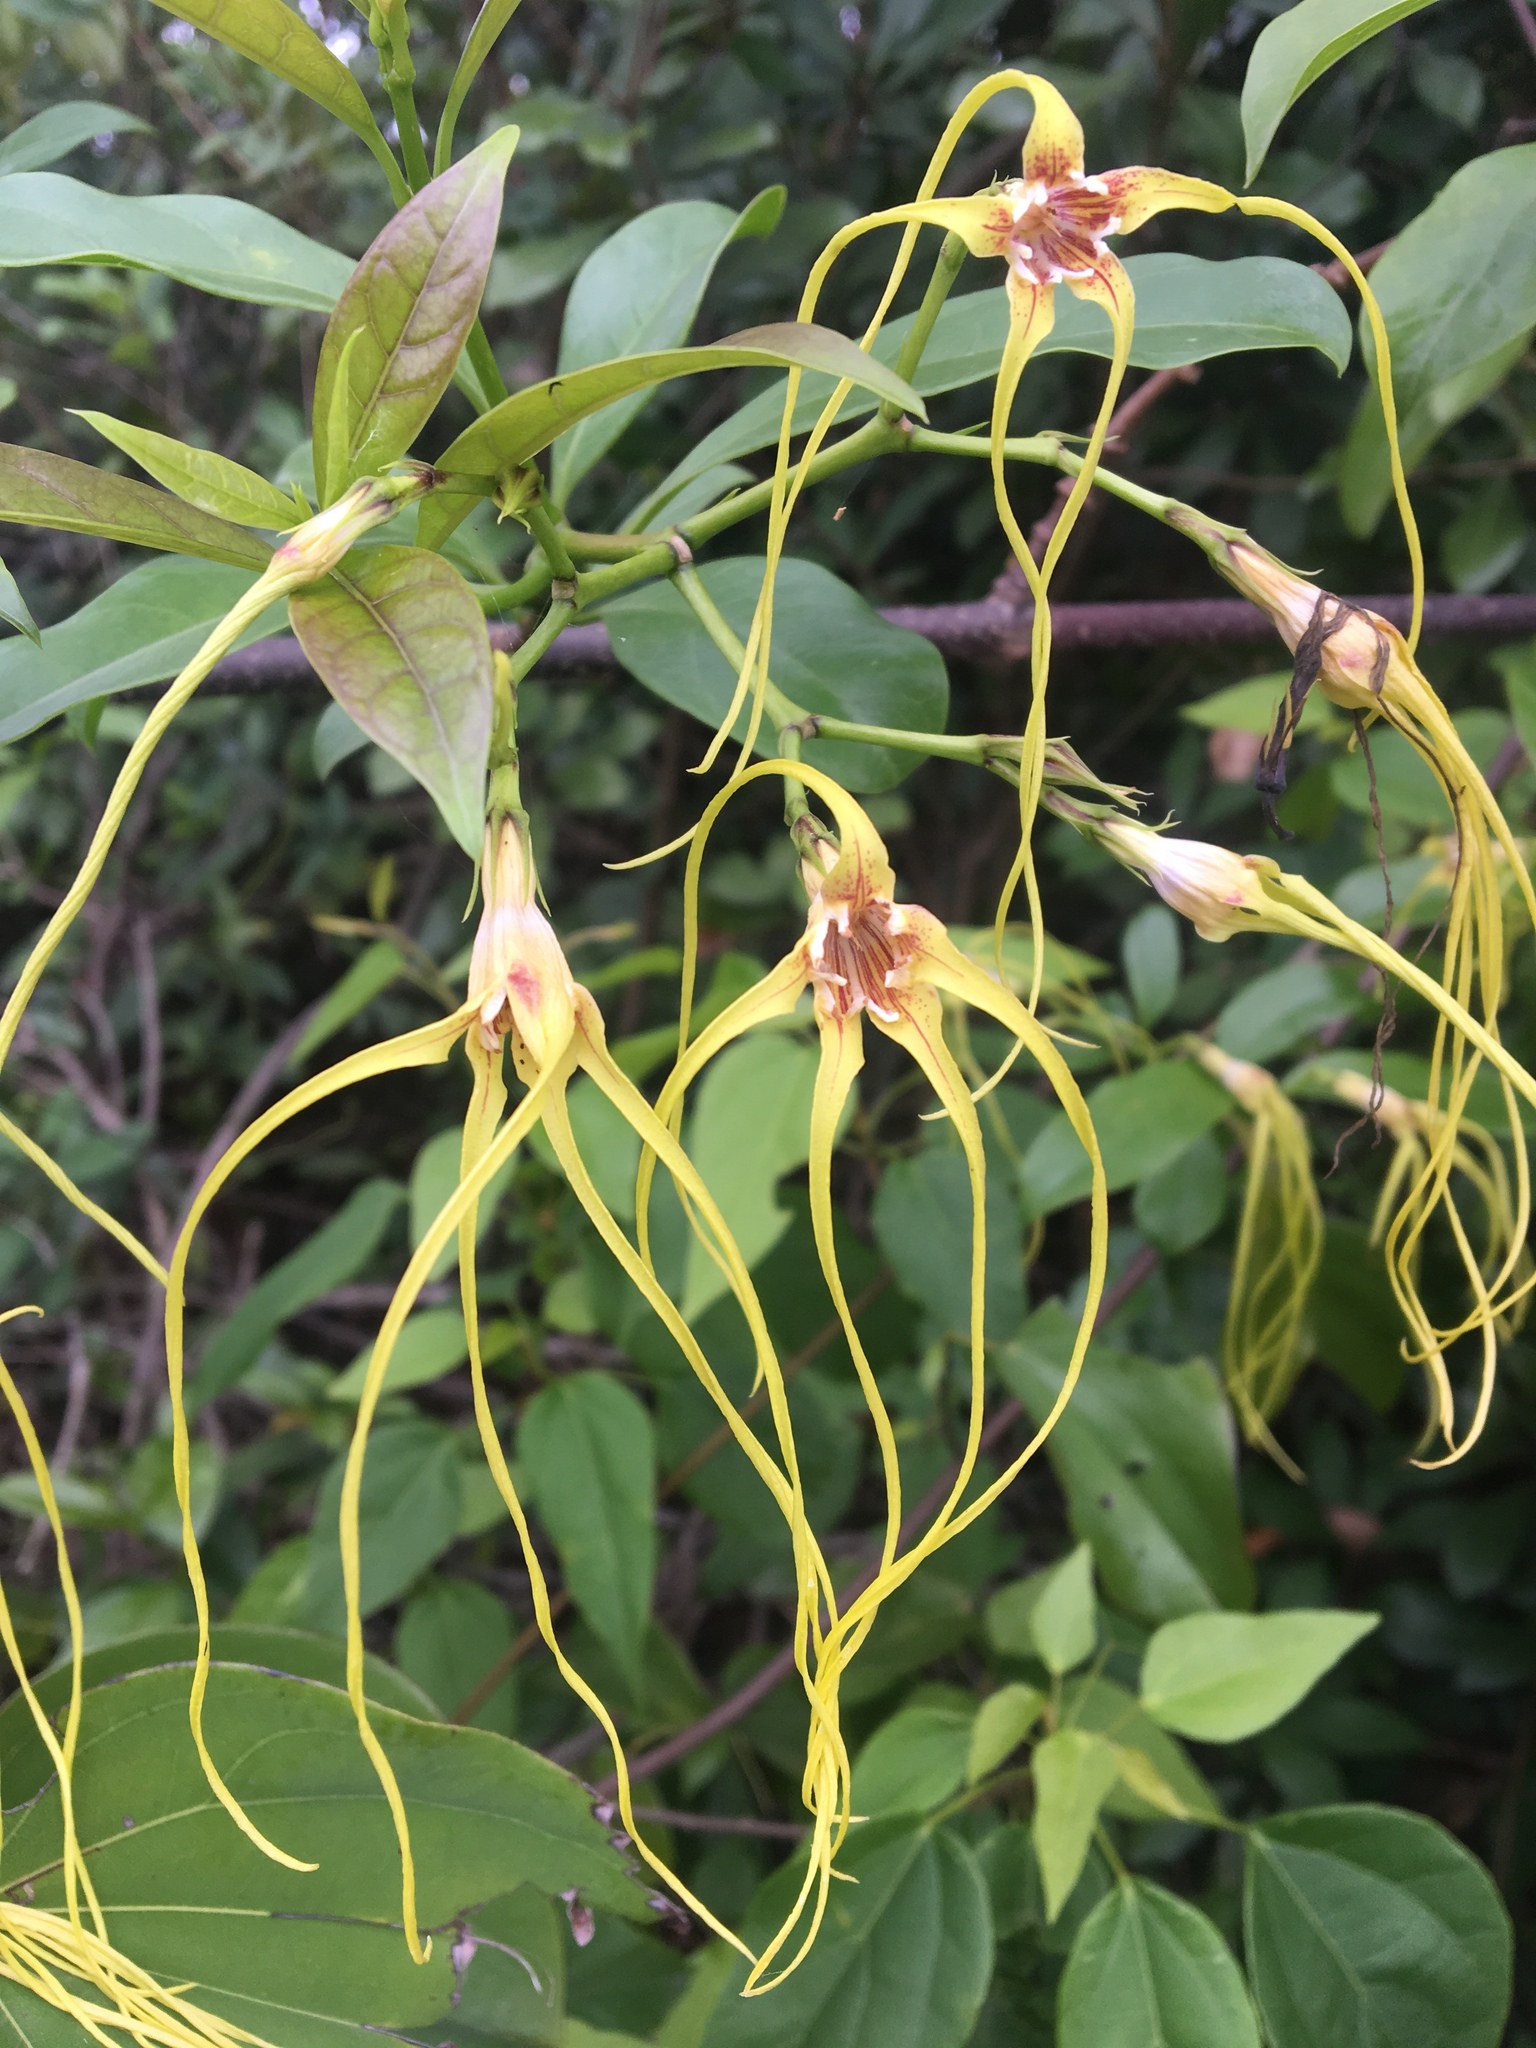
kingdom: Plantae
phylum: Tracheophyta
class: Magnoliopsida
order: Gentianales
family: Apocynaceae
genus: Strophanthus
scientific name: Strophanthus divaricatus
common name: Goat-horns
